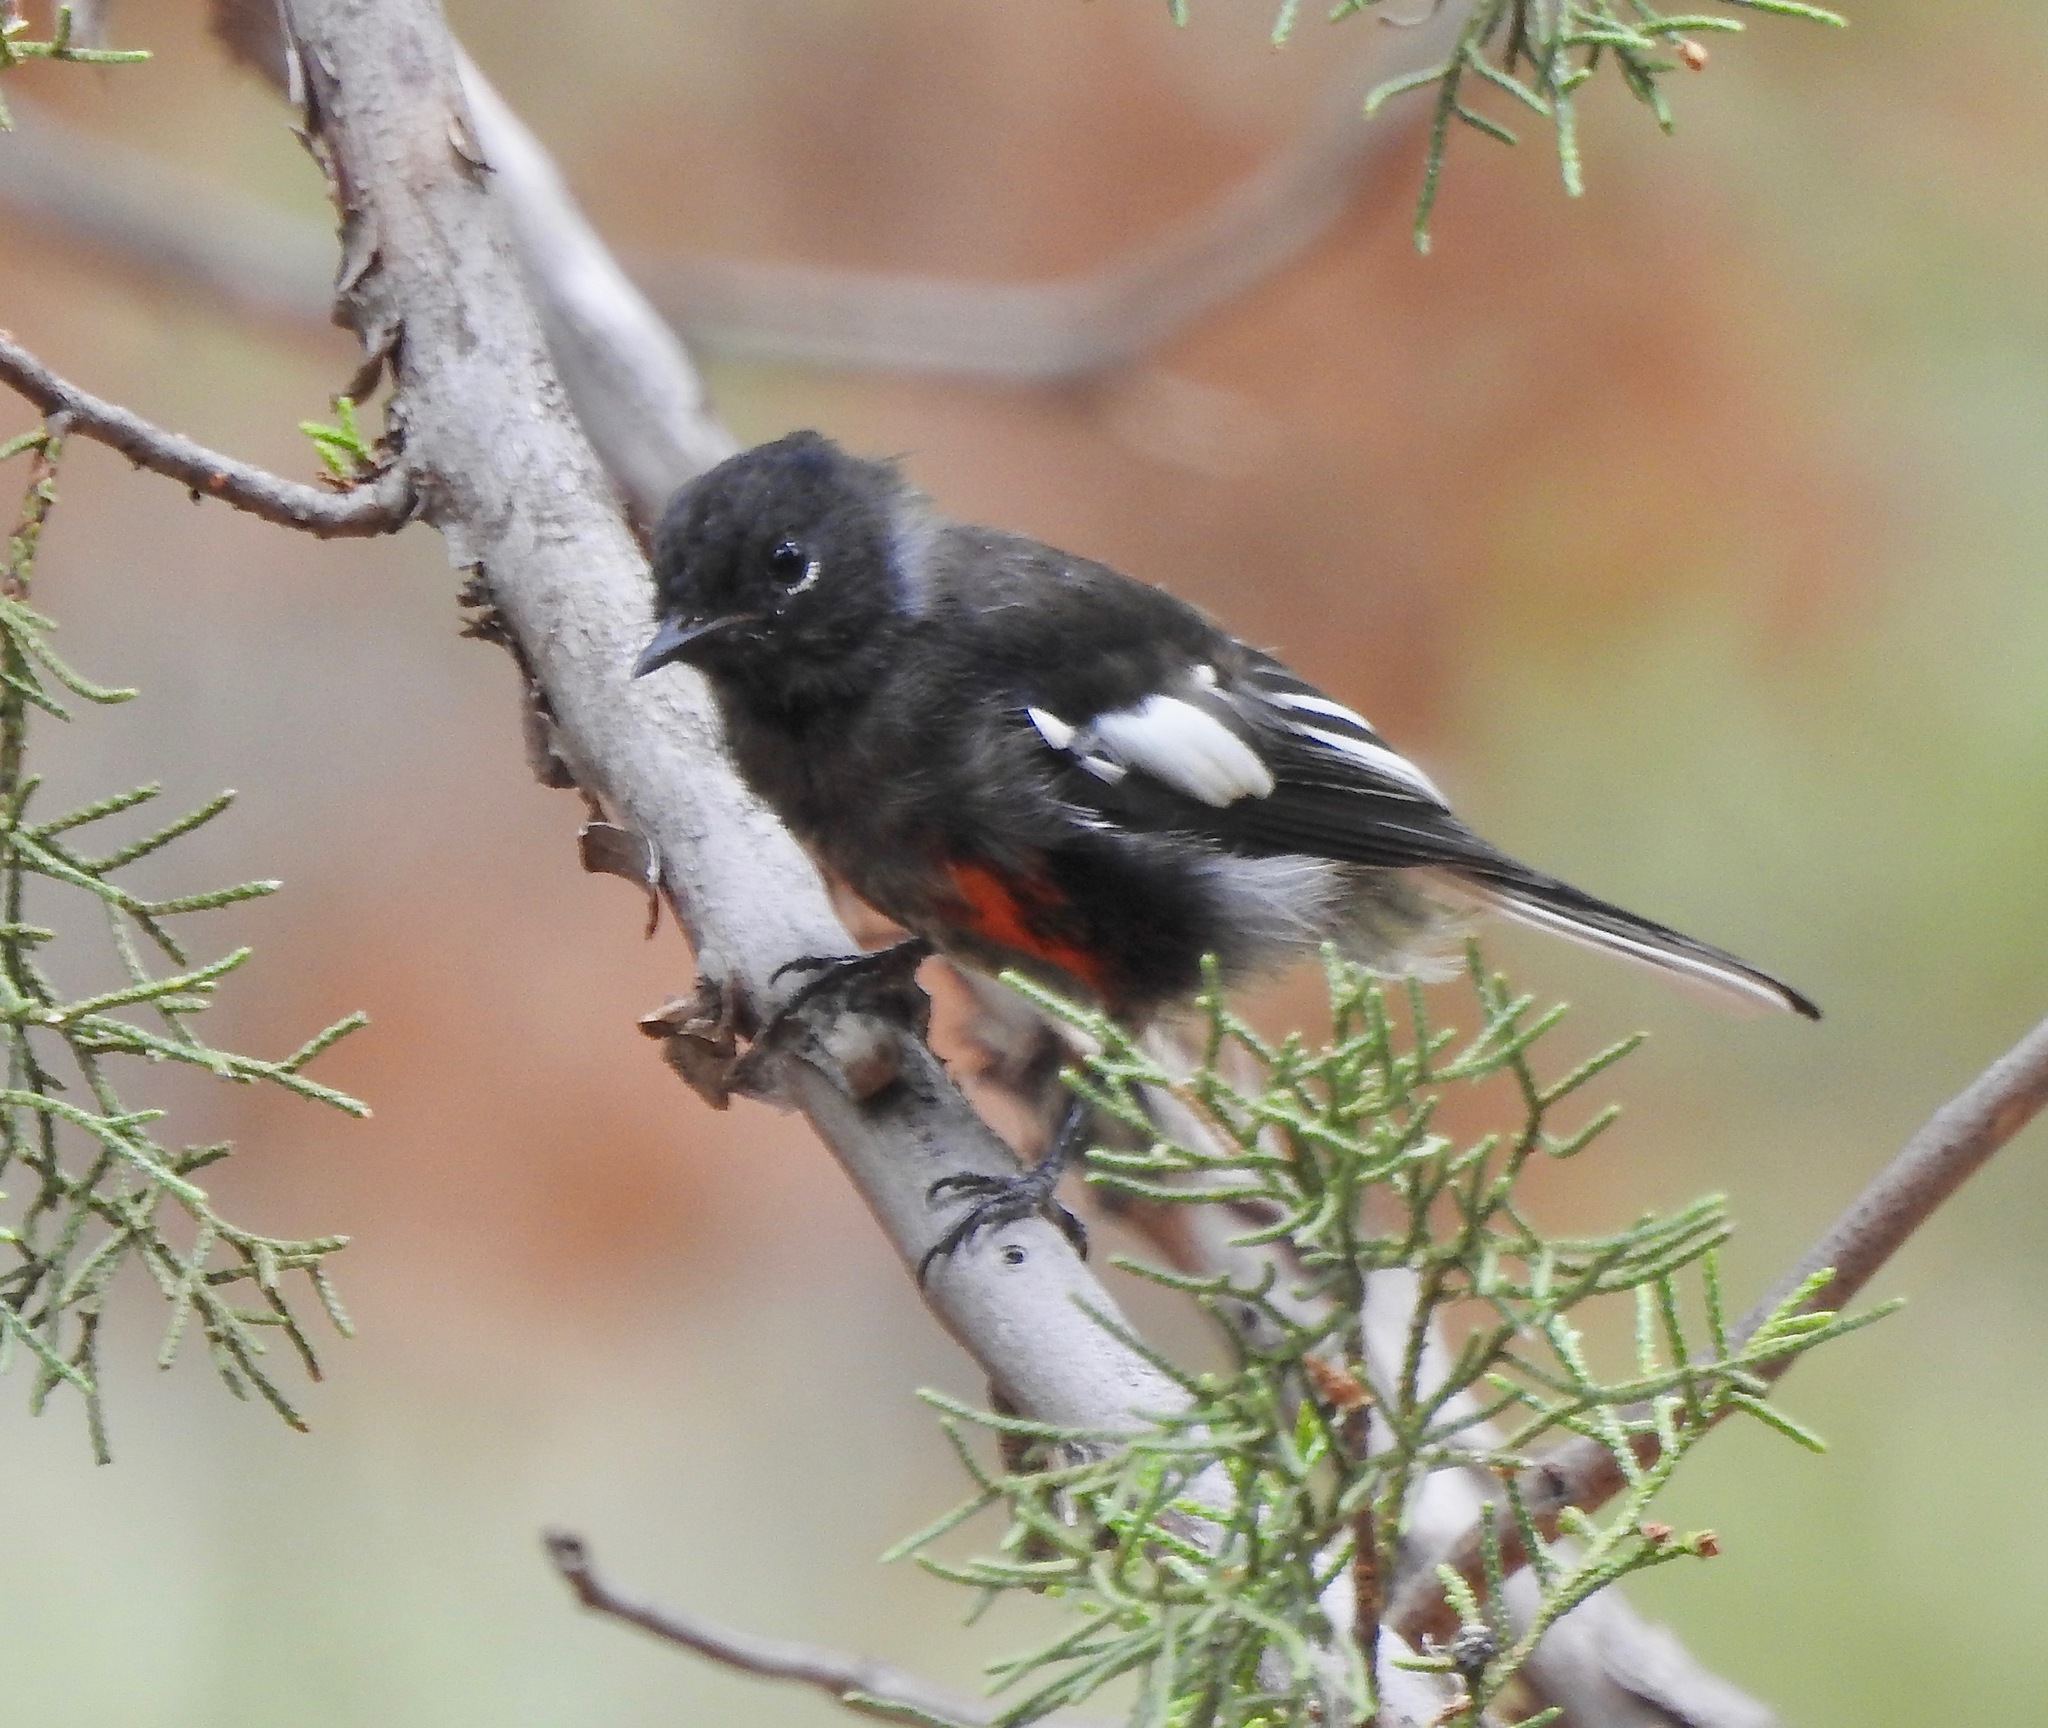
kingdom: Animalia
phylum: Chordata
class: Aves
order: Passeriformes
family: Parulidae
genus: Myioborus
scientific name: Myioborus pictus
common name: Painted whitestart
